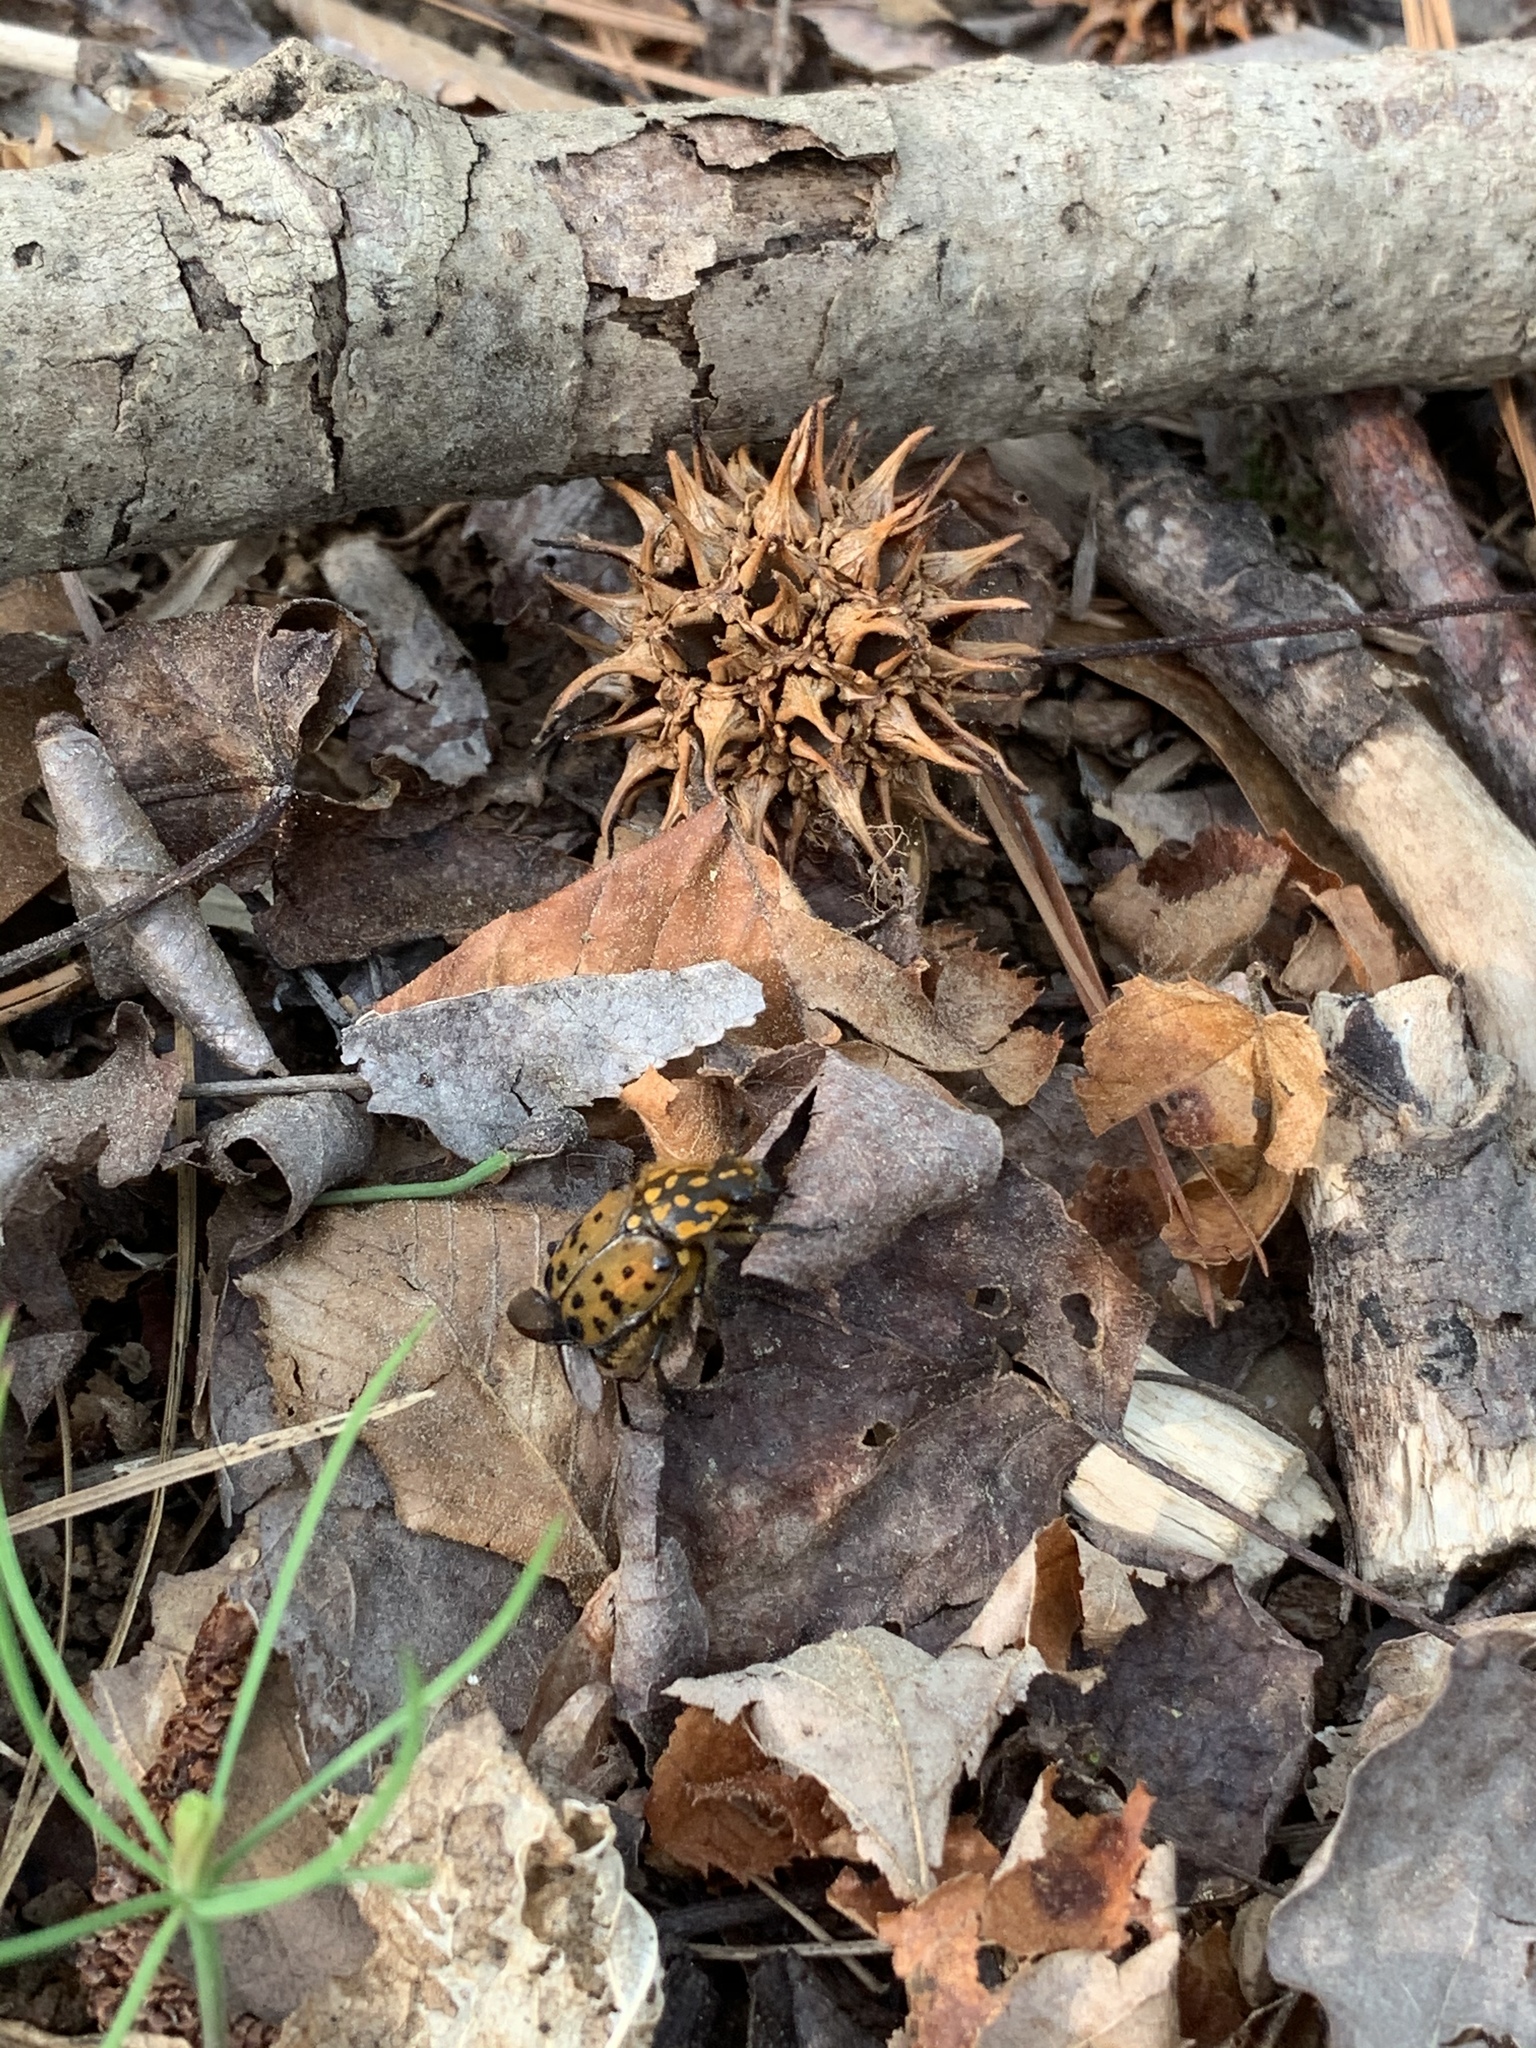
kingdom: Animalia
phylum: Arthropoda
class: Insecta
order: Coleoptera
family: Scarabaeidae
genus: Gnorimella
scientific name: Gnorimella maculosa
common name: Maculate flower beetle
